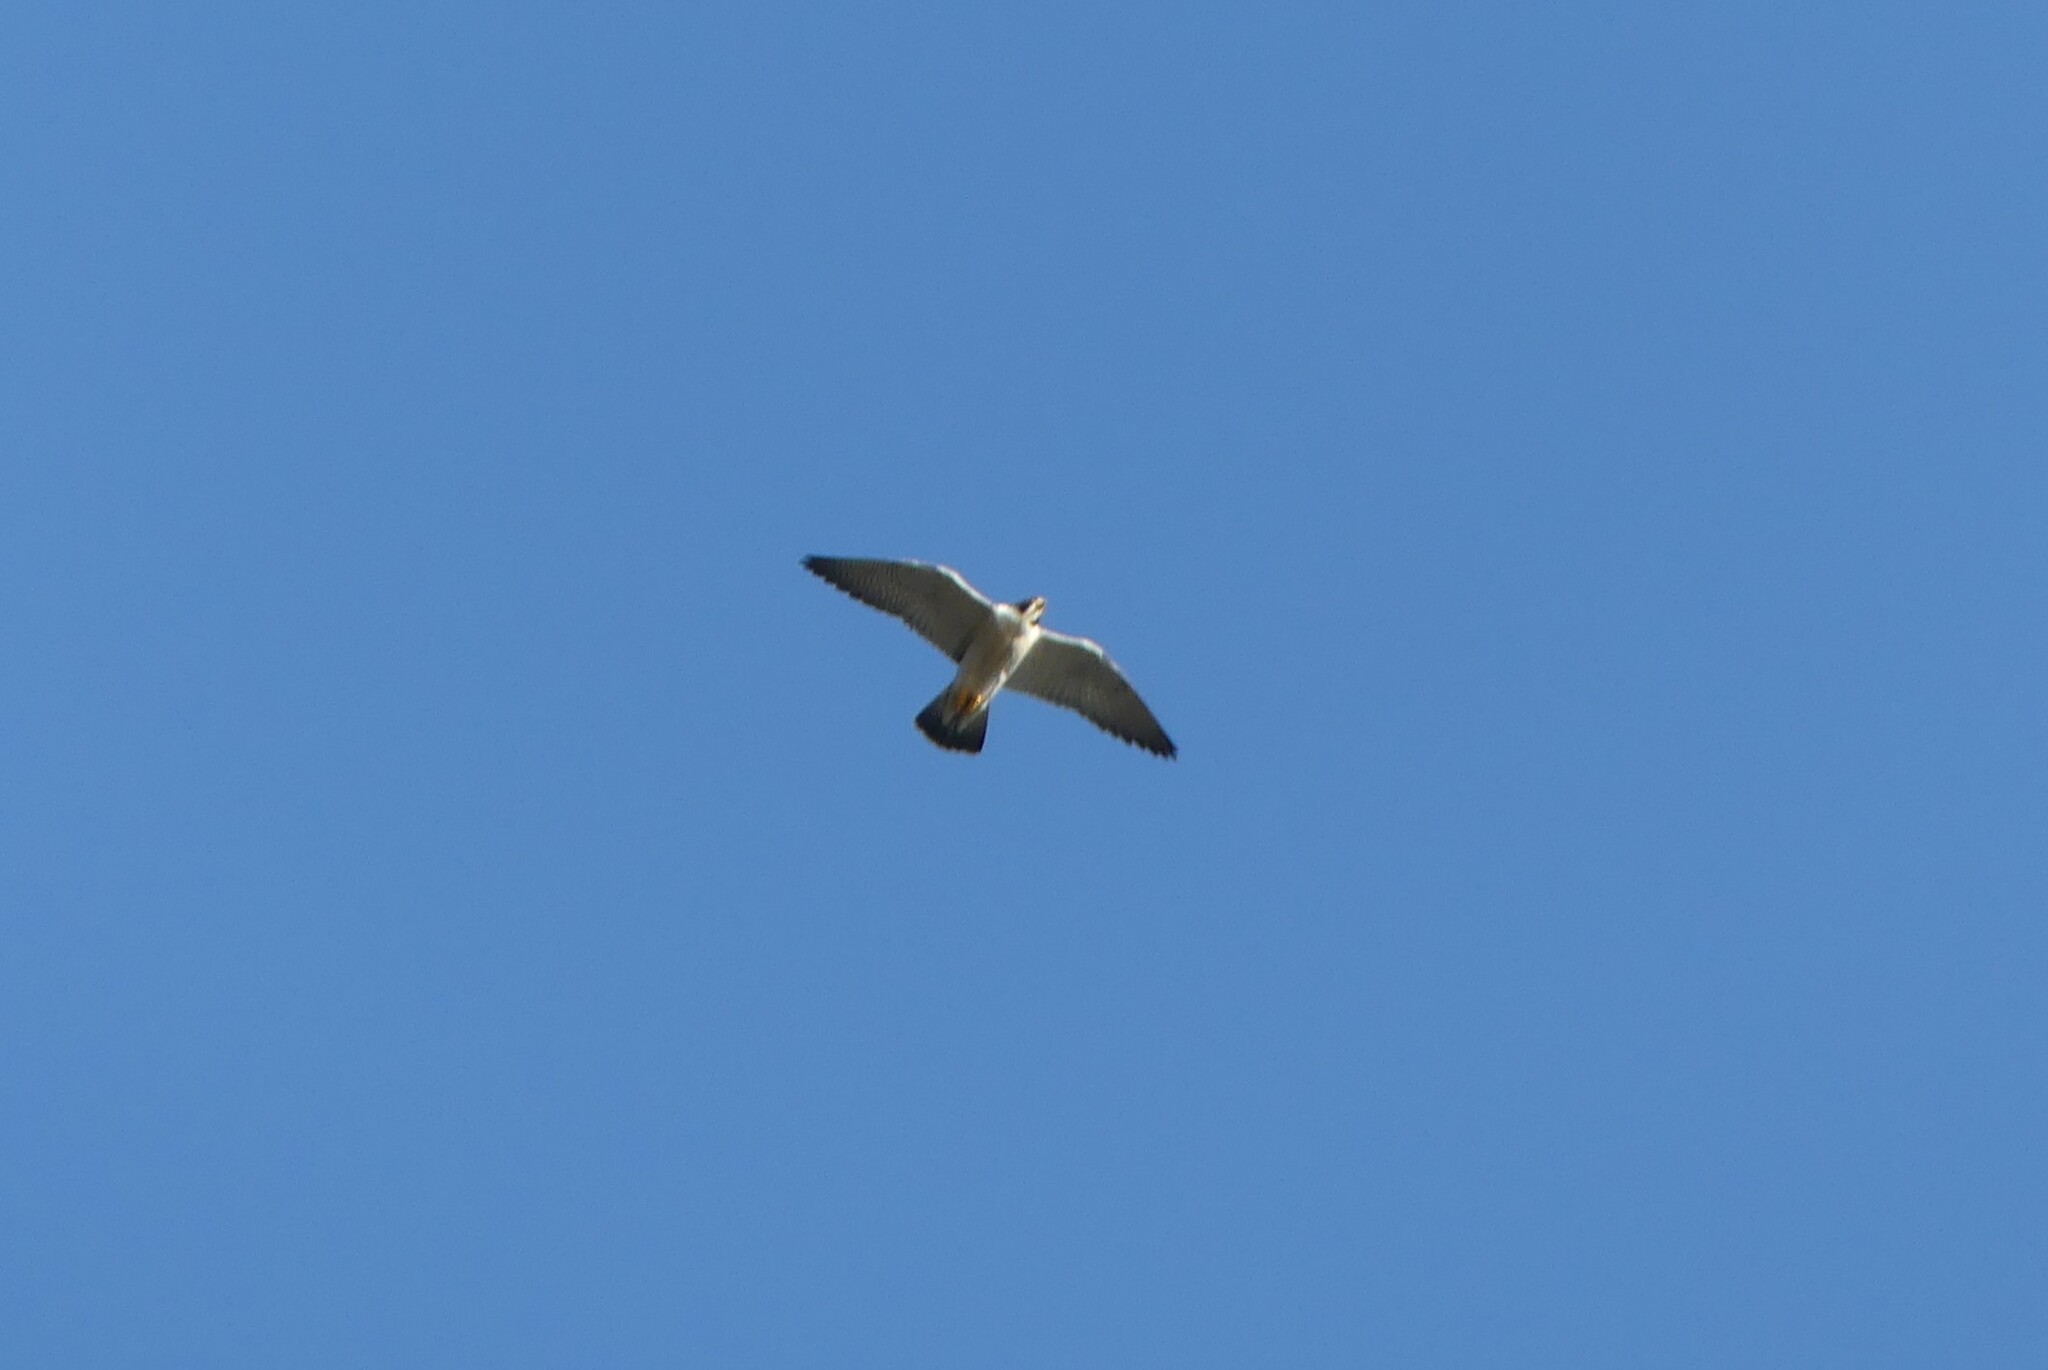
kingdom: Animalia
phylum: Chordata
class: Aves
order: Falconiformes
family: Falconidae
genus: Falco
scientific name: Falco peregrinus
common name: Peregrine falcon
